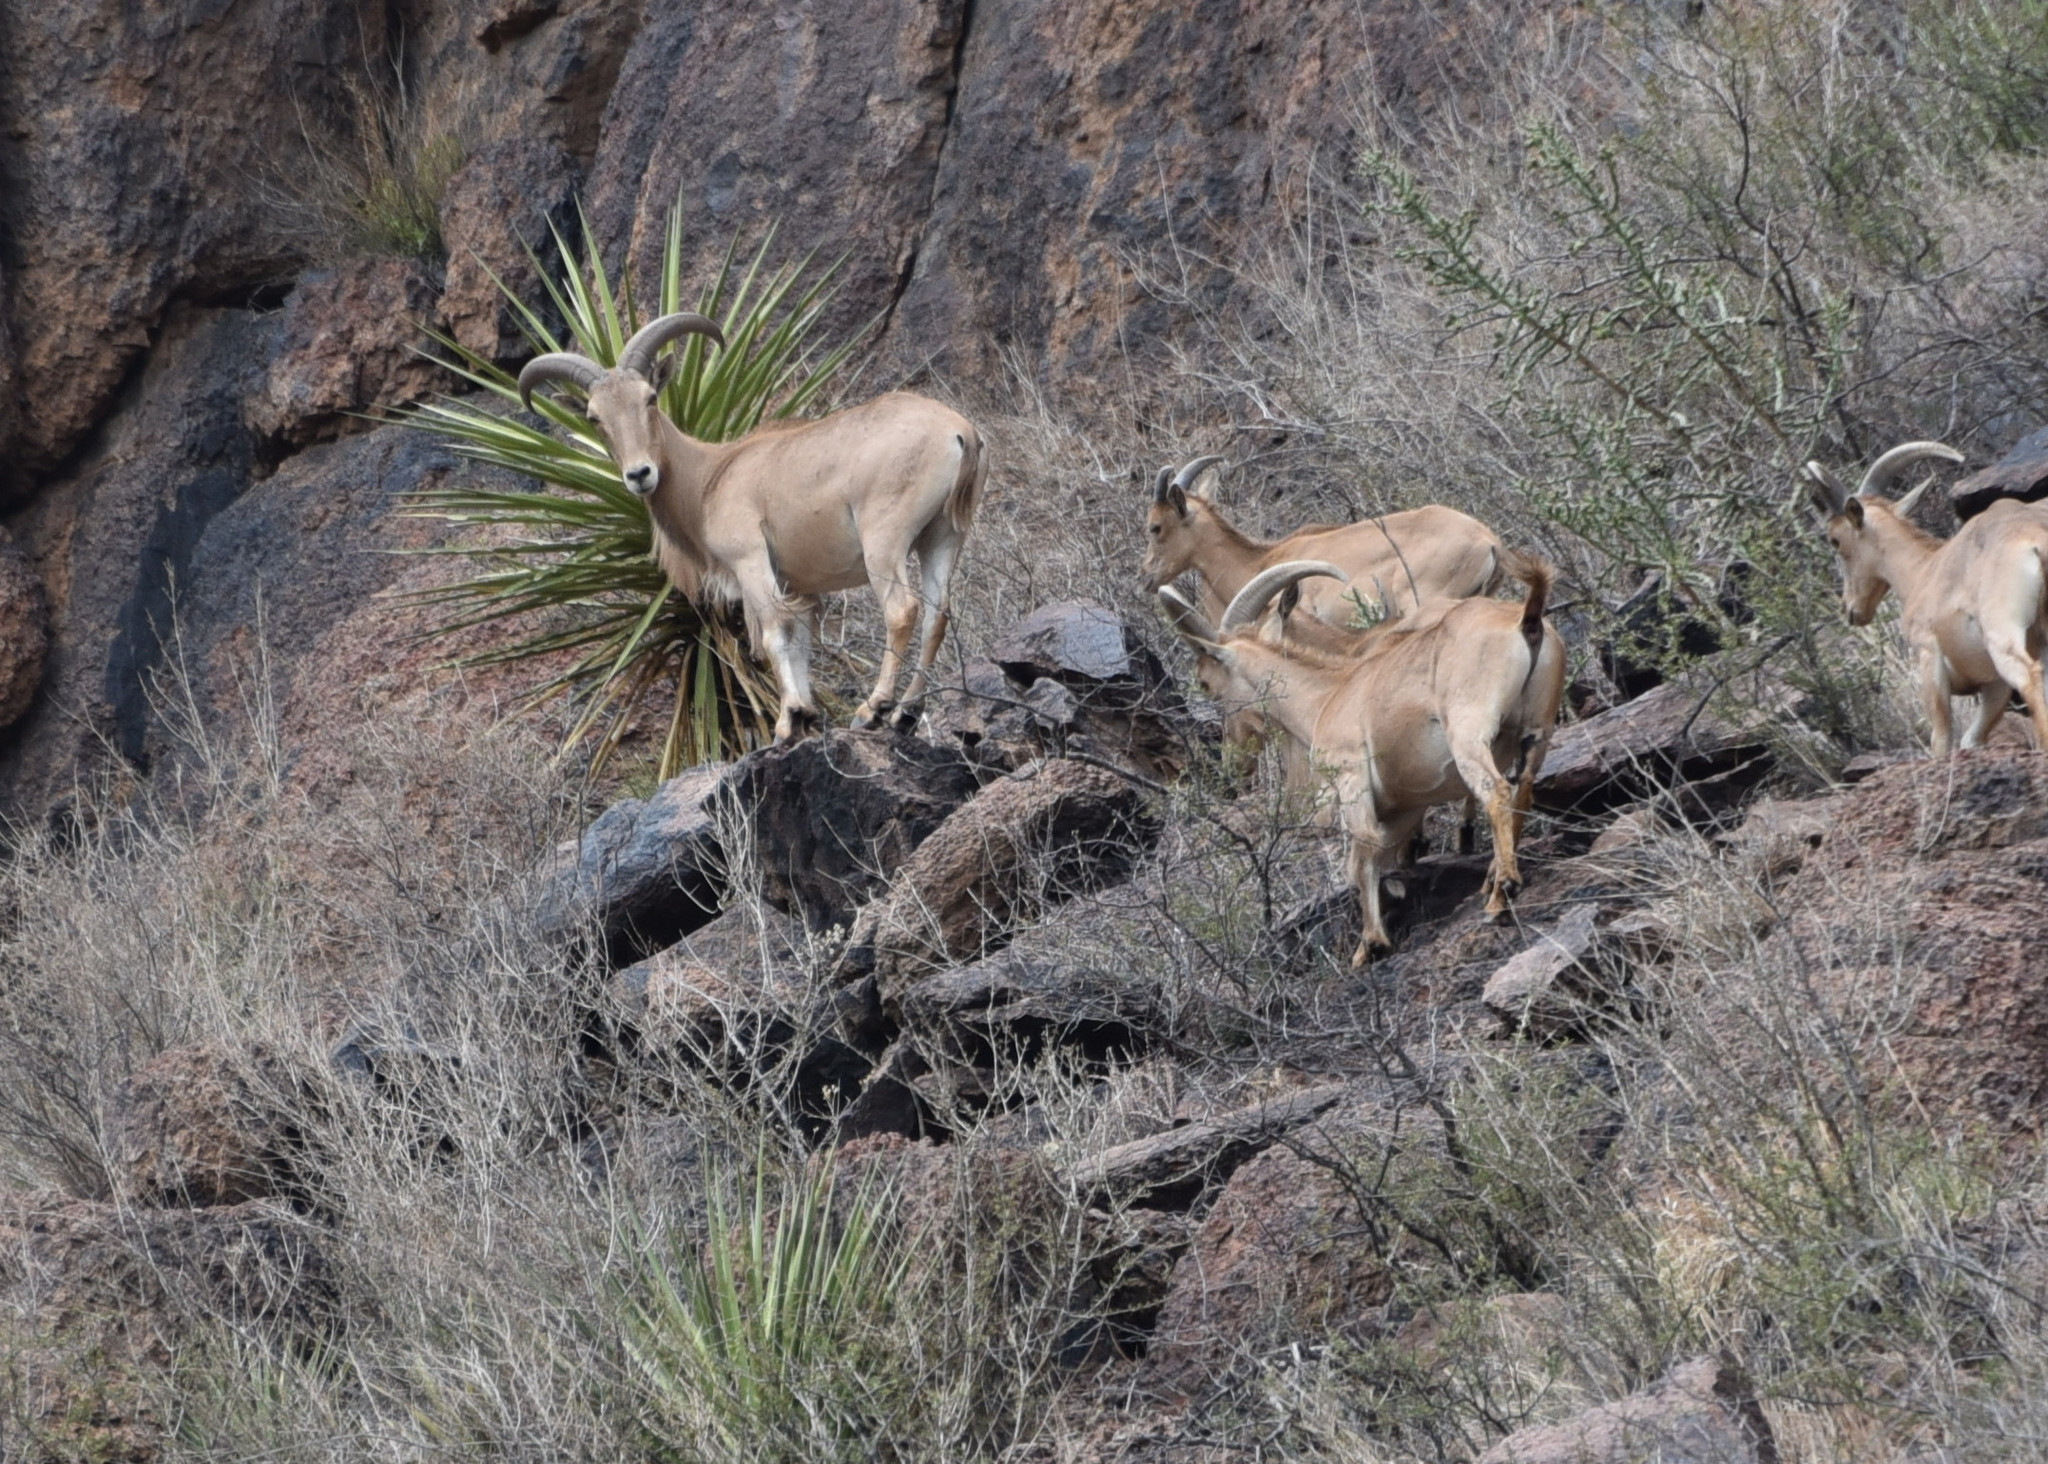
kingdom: Animalia
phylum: Chordata
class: Mammalia
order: Artiodactyla
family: Bovidae
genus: Ammotragus
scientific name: Ammotragus lervia
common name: Barbary sheep
